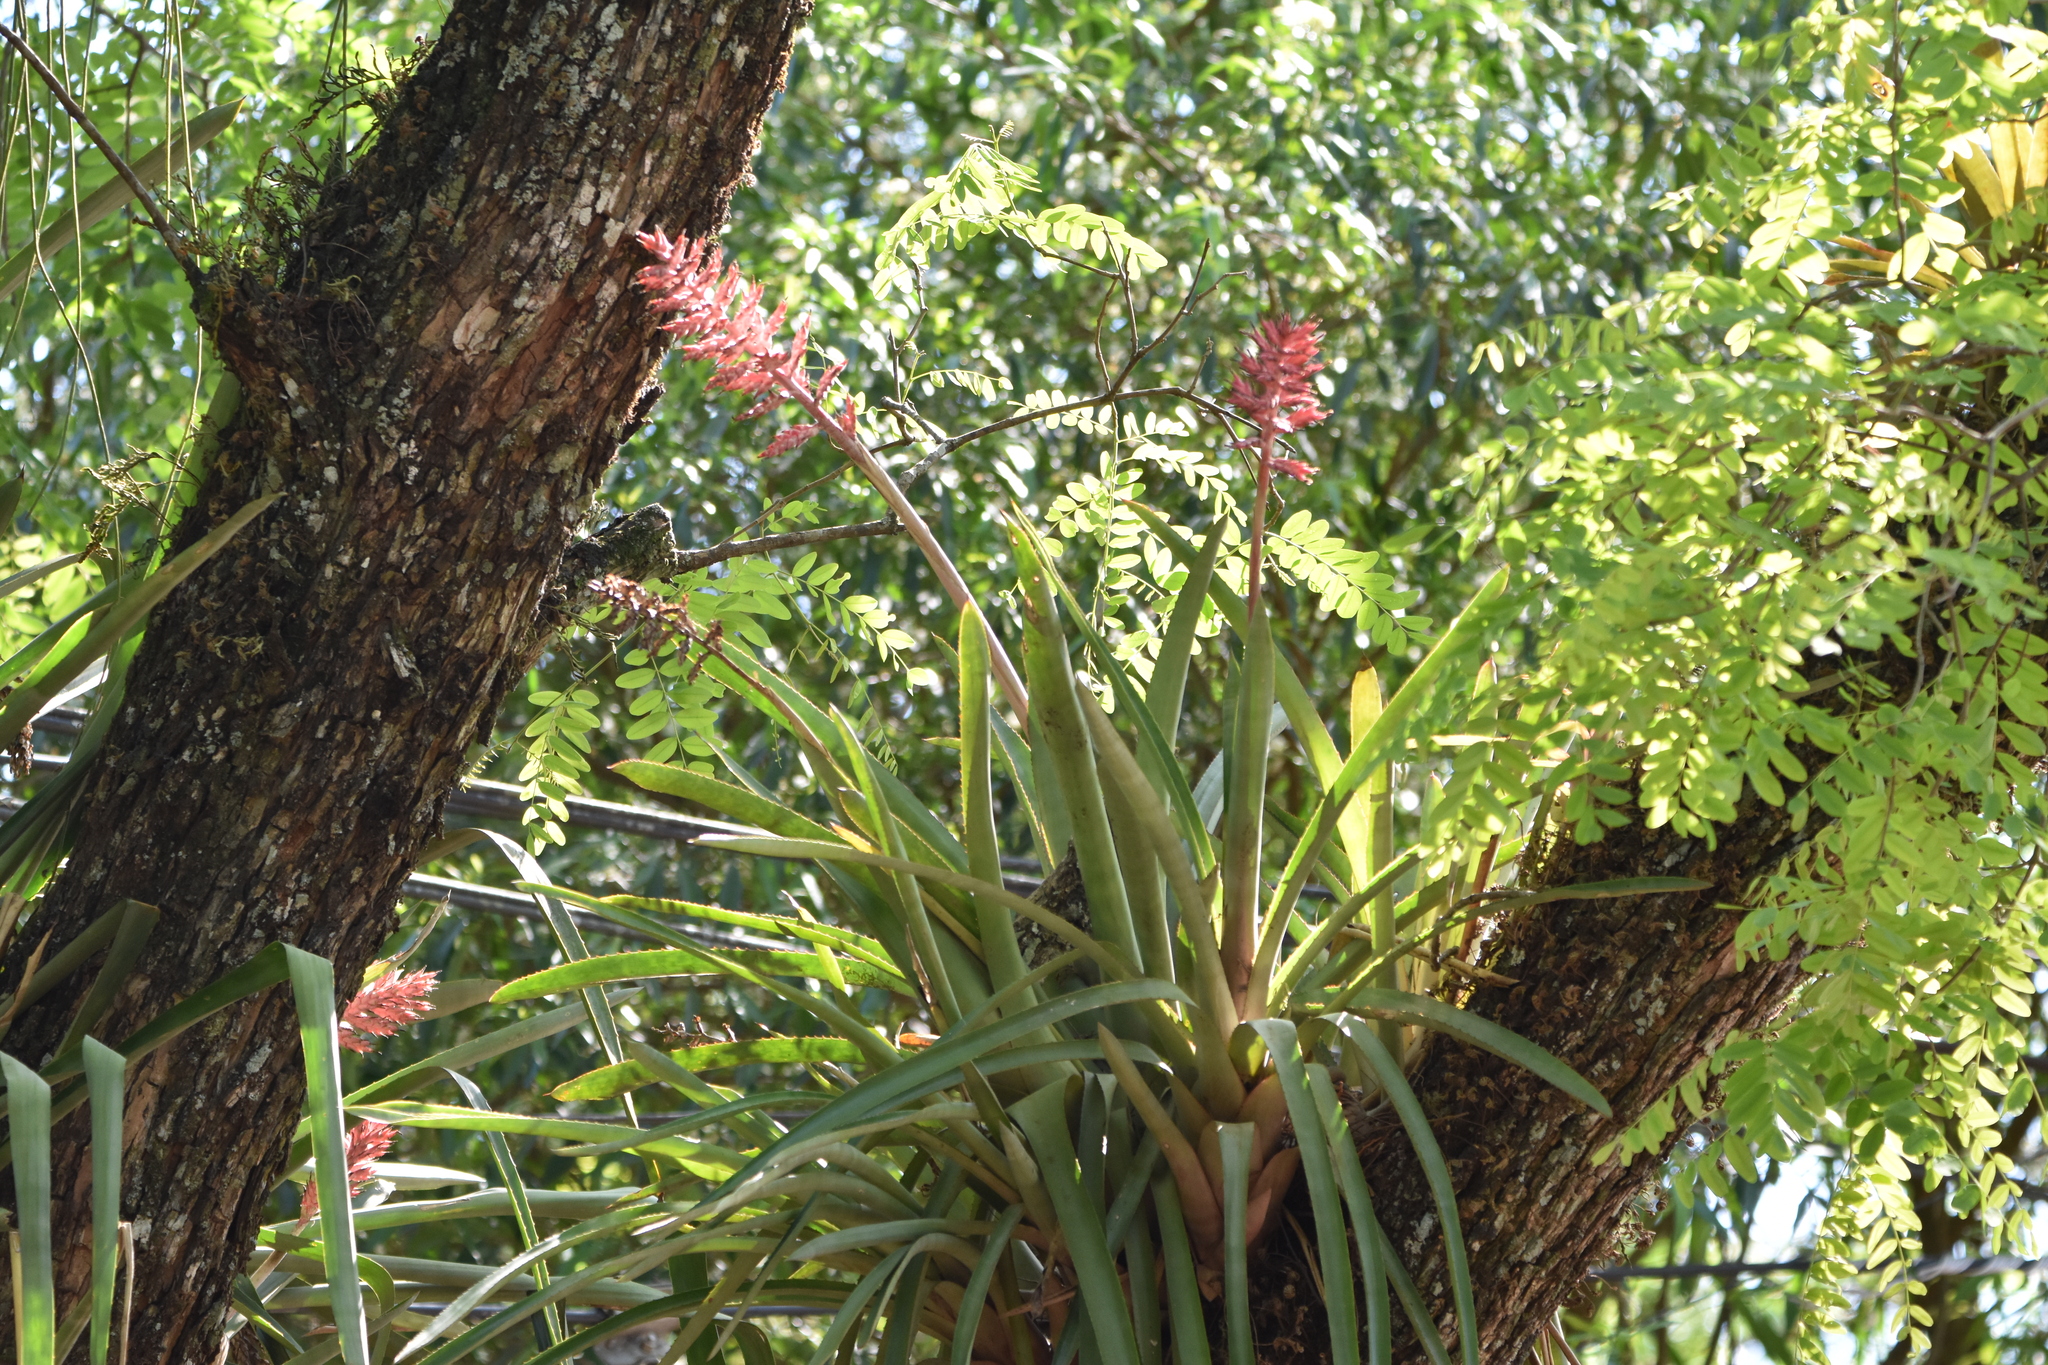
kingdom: Plantae
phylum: Tracheophyta
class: Liliopsida
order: Poales
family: Bromeliaceae
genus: Aechmea
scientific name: Aechmea distichantha
